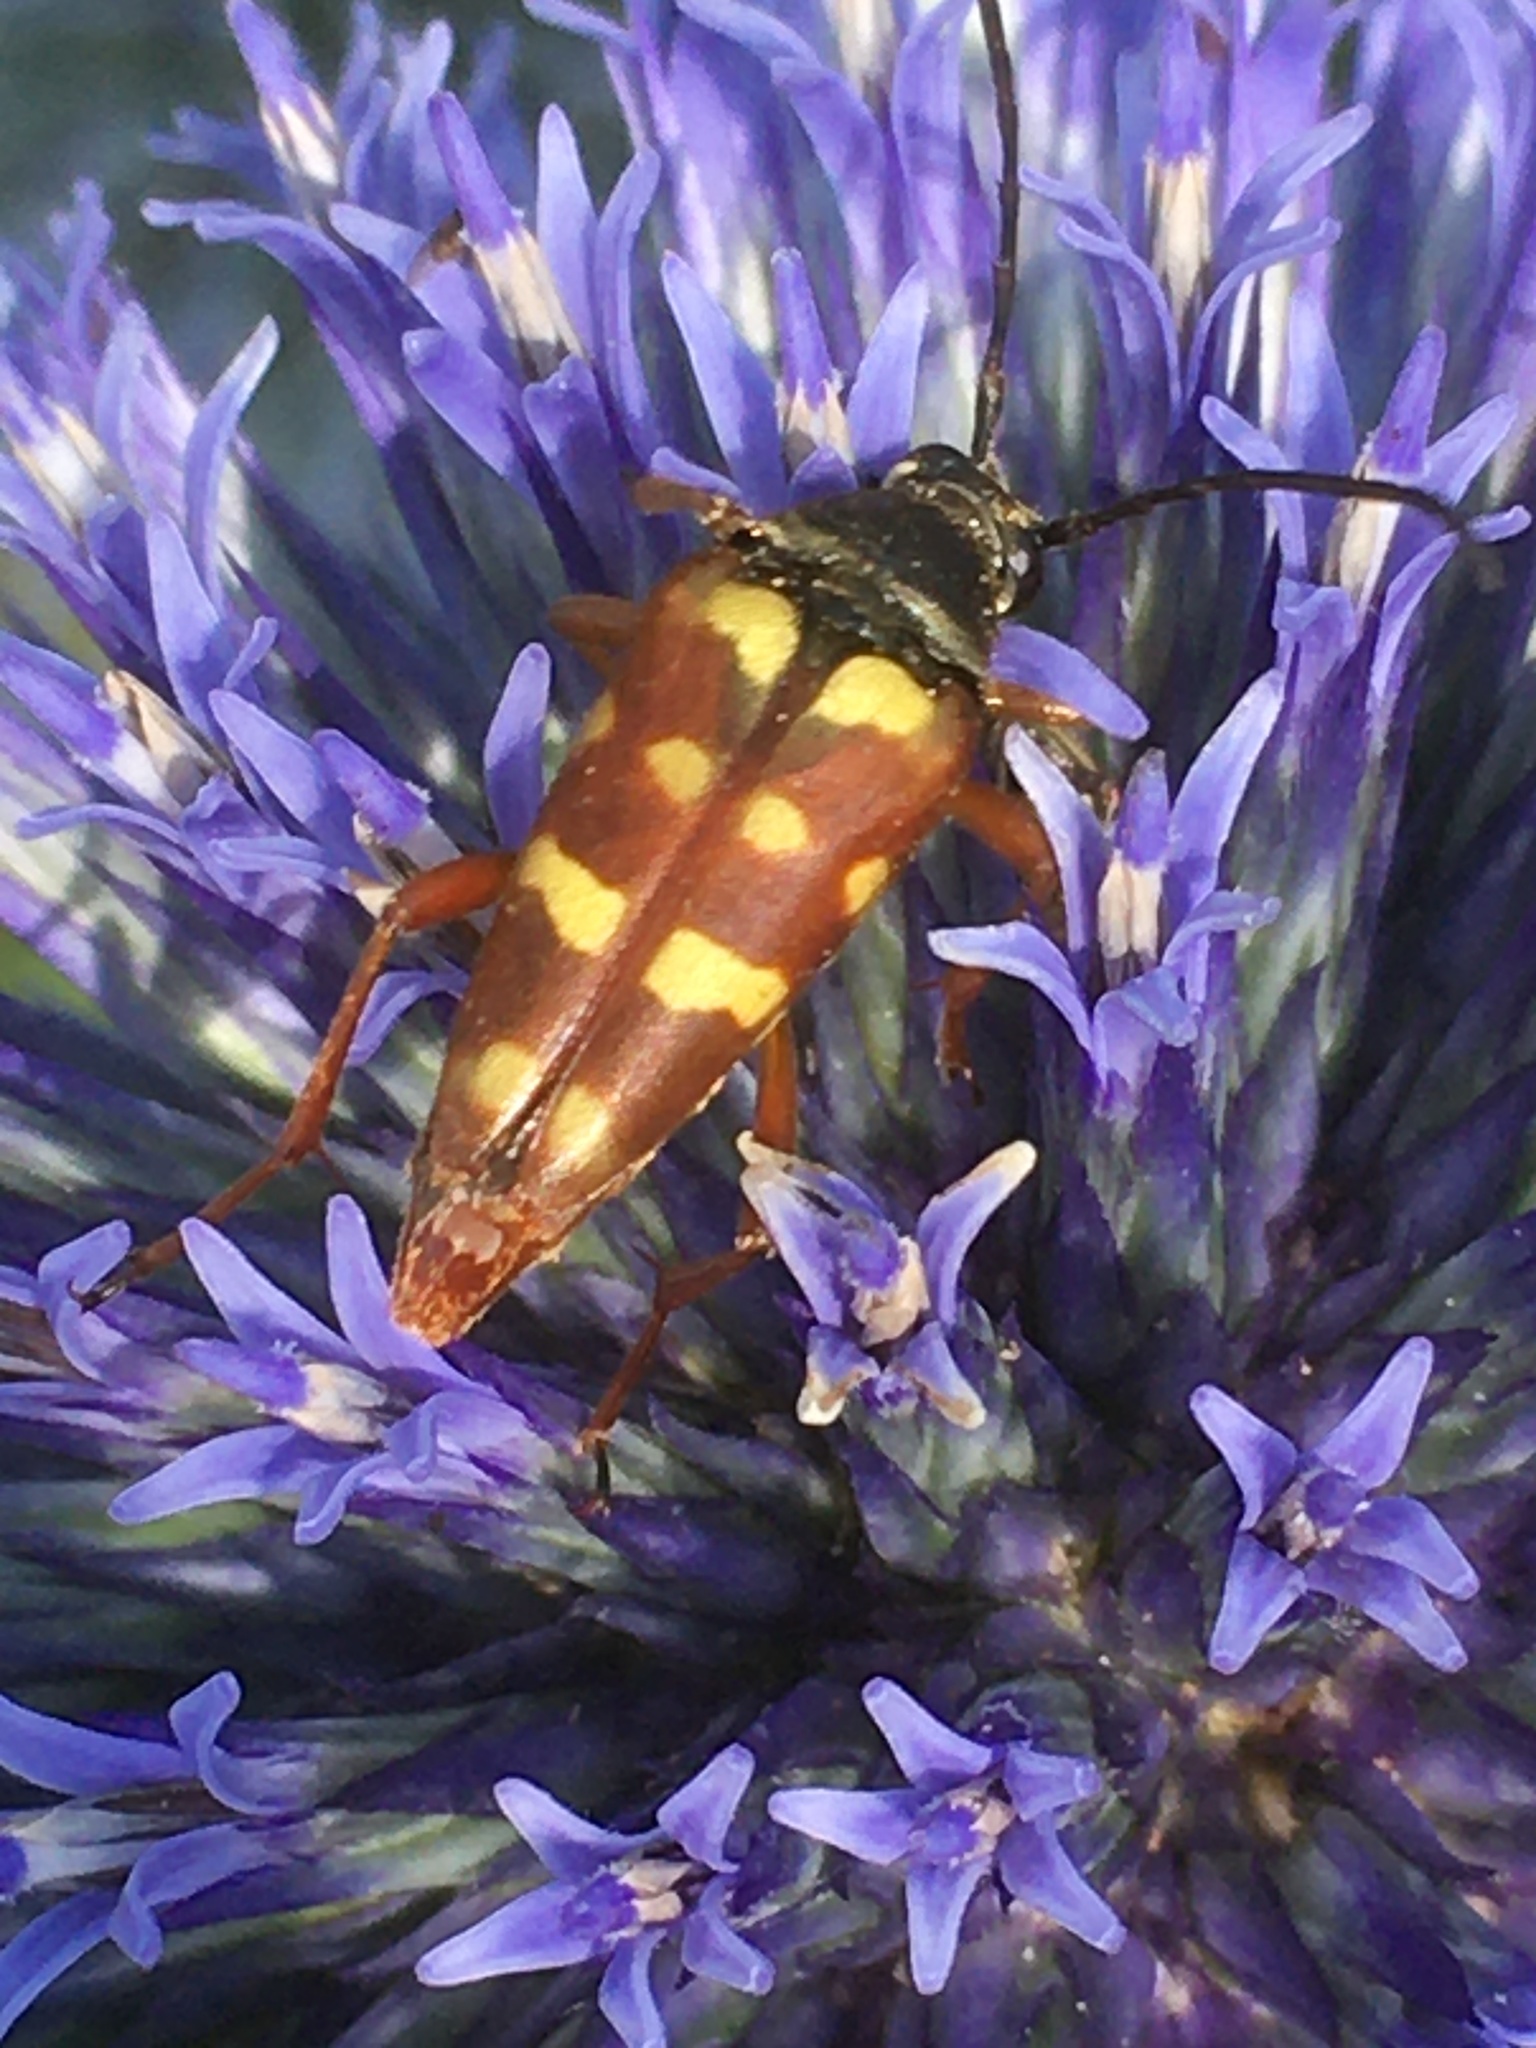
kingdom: Animalia
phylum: Arthropoda
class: Insecta
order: Coleoptera
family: Cerambycidae
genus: Typocerus
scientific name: Typocerus velutinus
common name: Banded longhorn beetle
